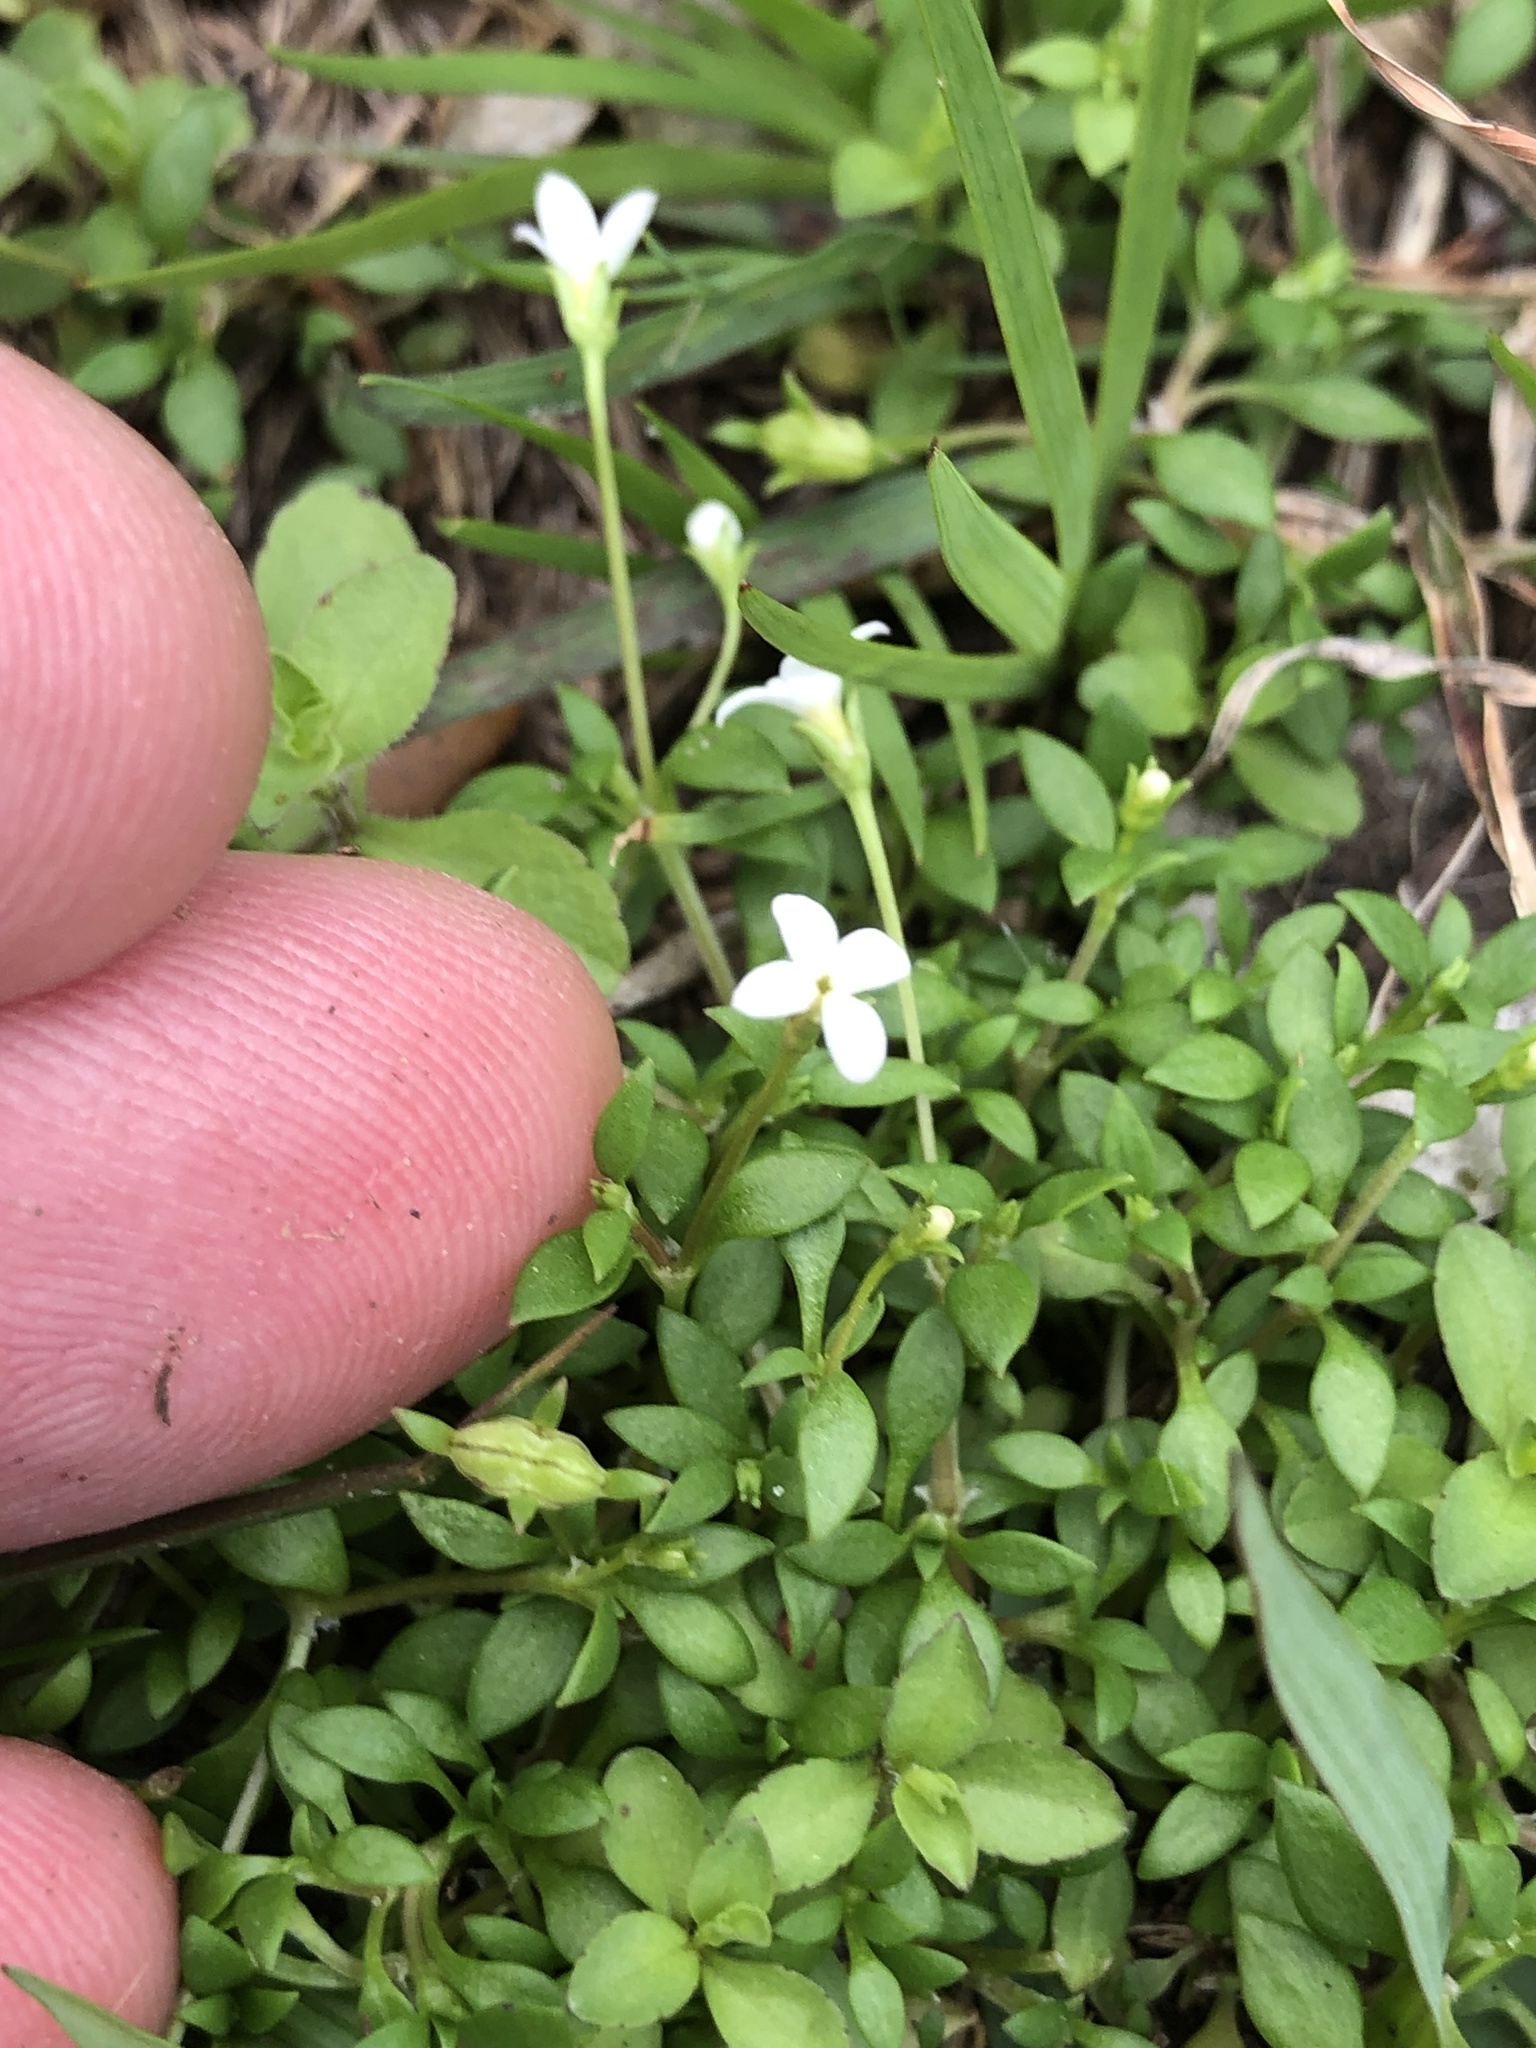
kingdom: Plantae
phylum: Tracheophyta
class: Magnoliopsida
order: Gentianales
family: Rubiaceae
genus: Houstonia
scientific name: Houstonia micrantha
